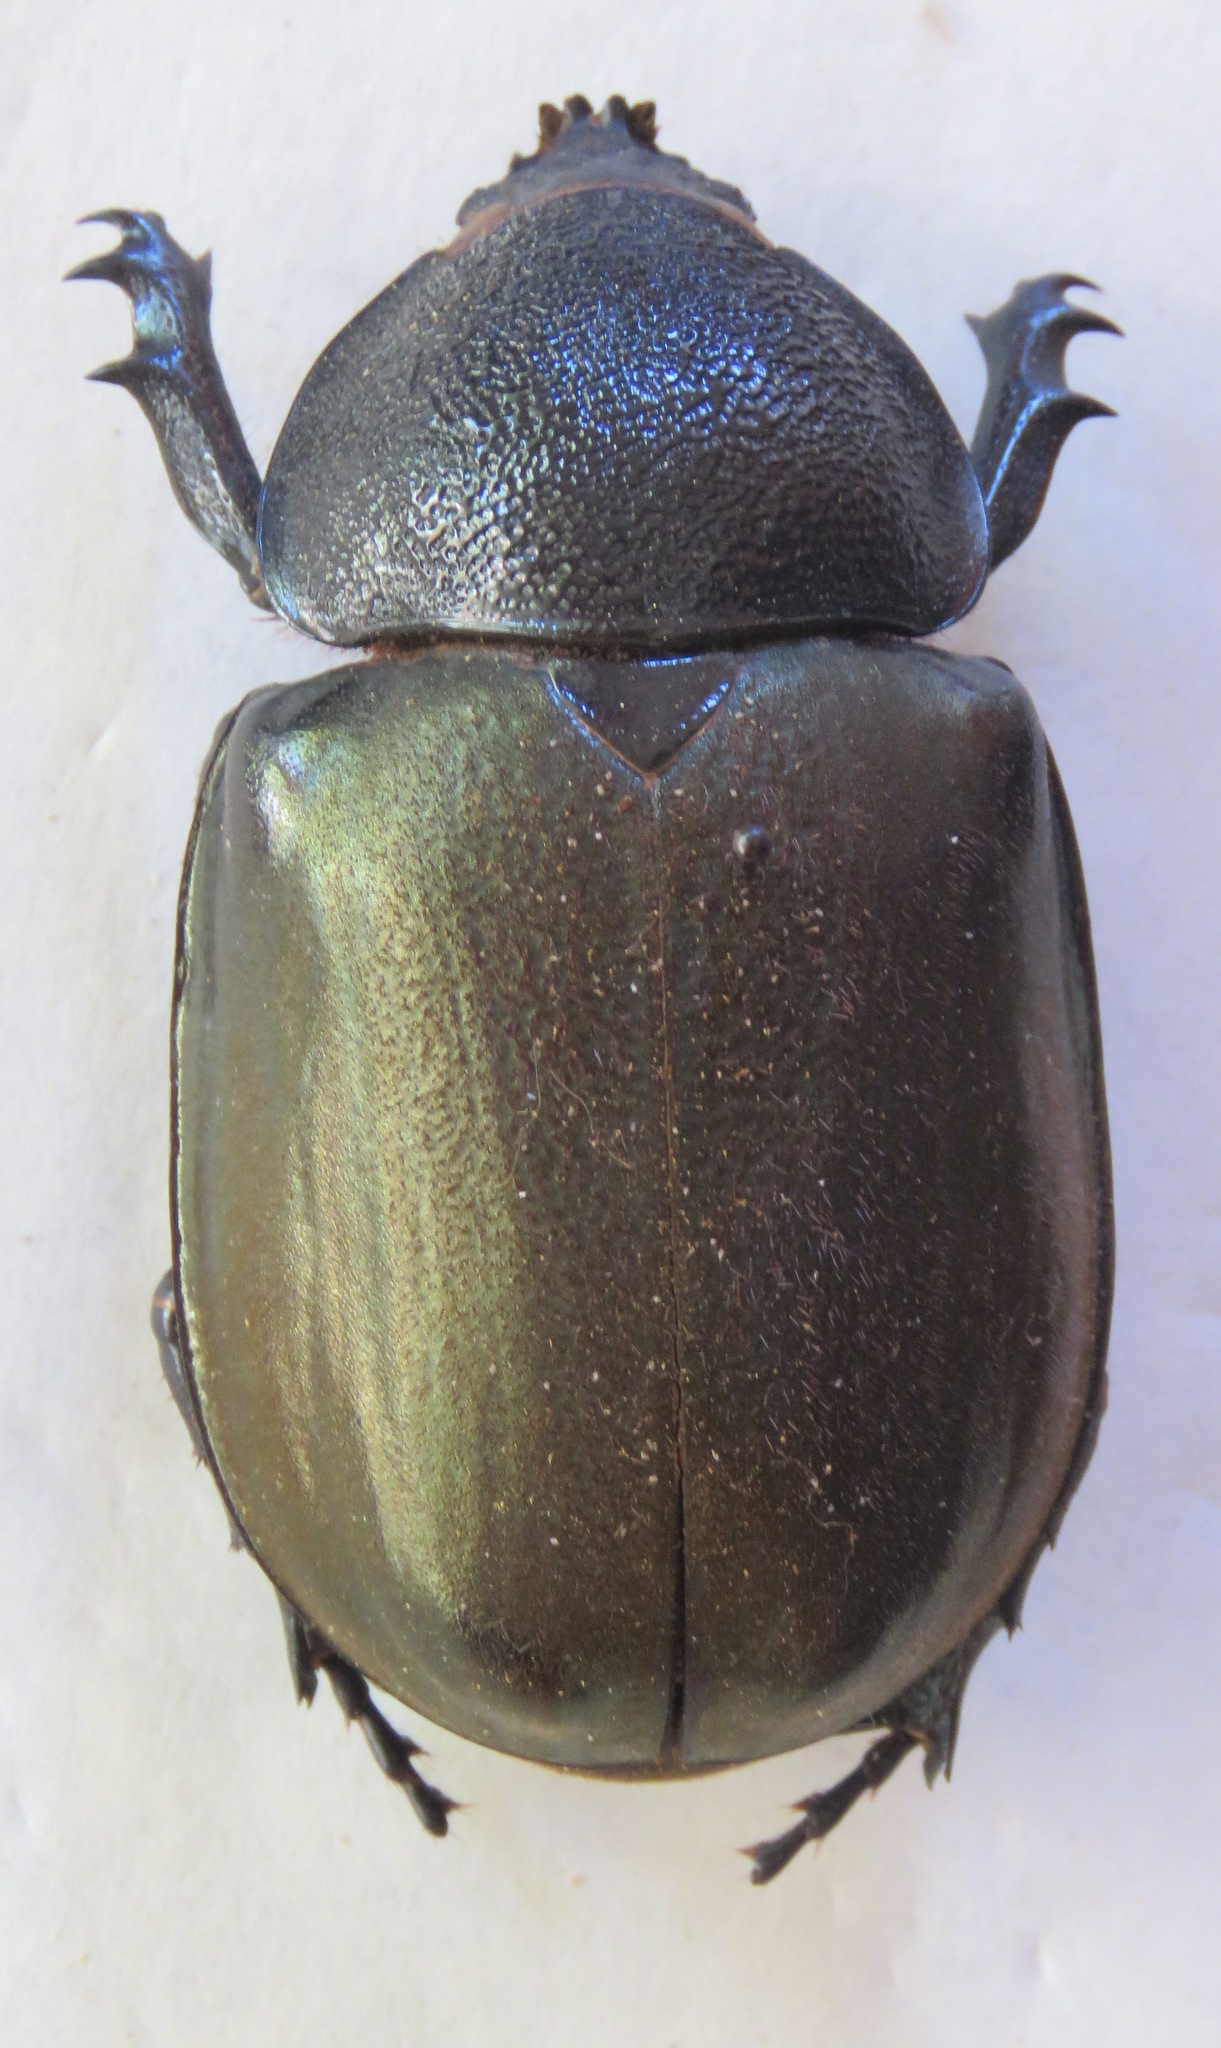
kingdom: Animalia
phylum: Arthropoda
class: Insecta
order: Coleoptera
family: Scarabaeidae
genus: Chalcosoma
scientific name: Chalcosoma atlas
